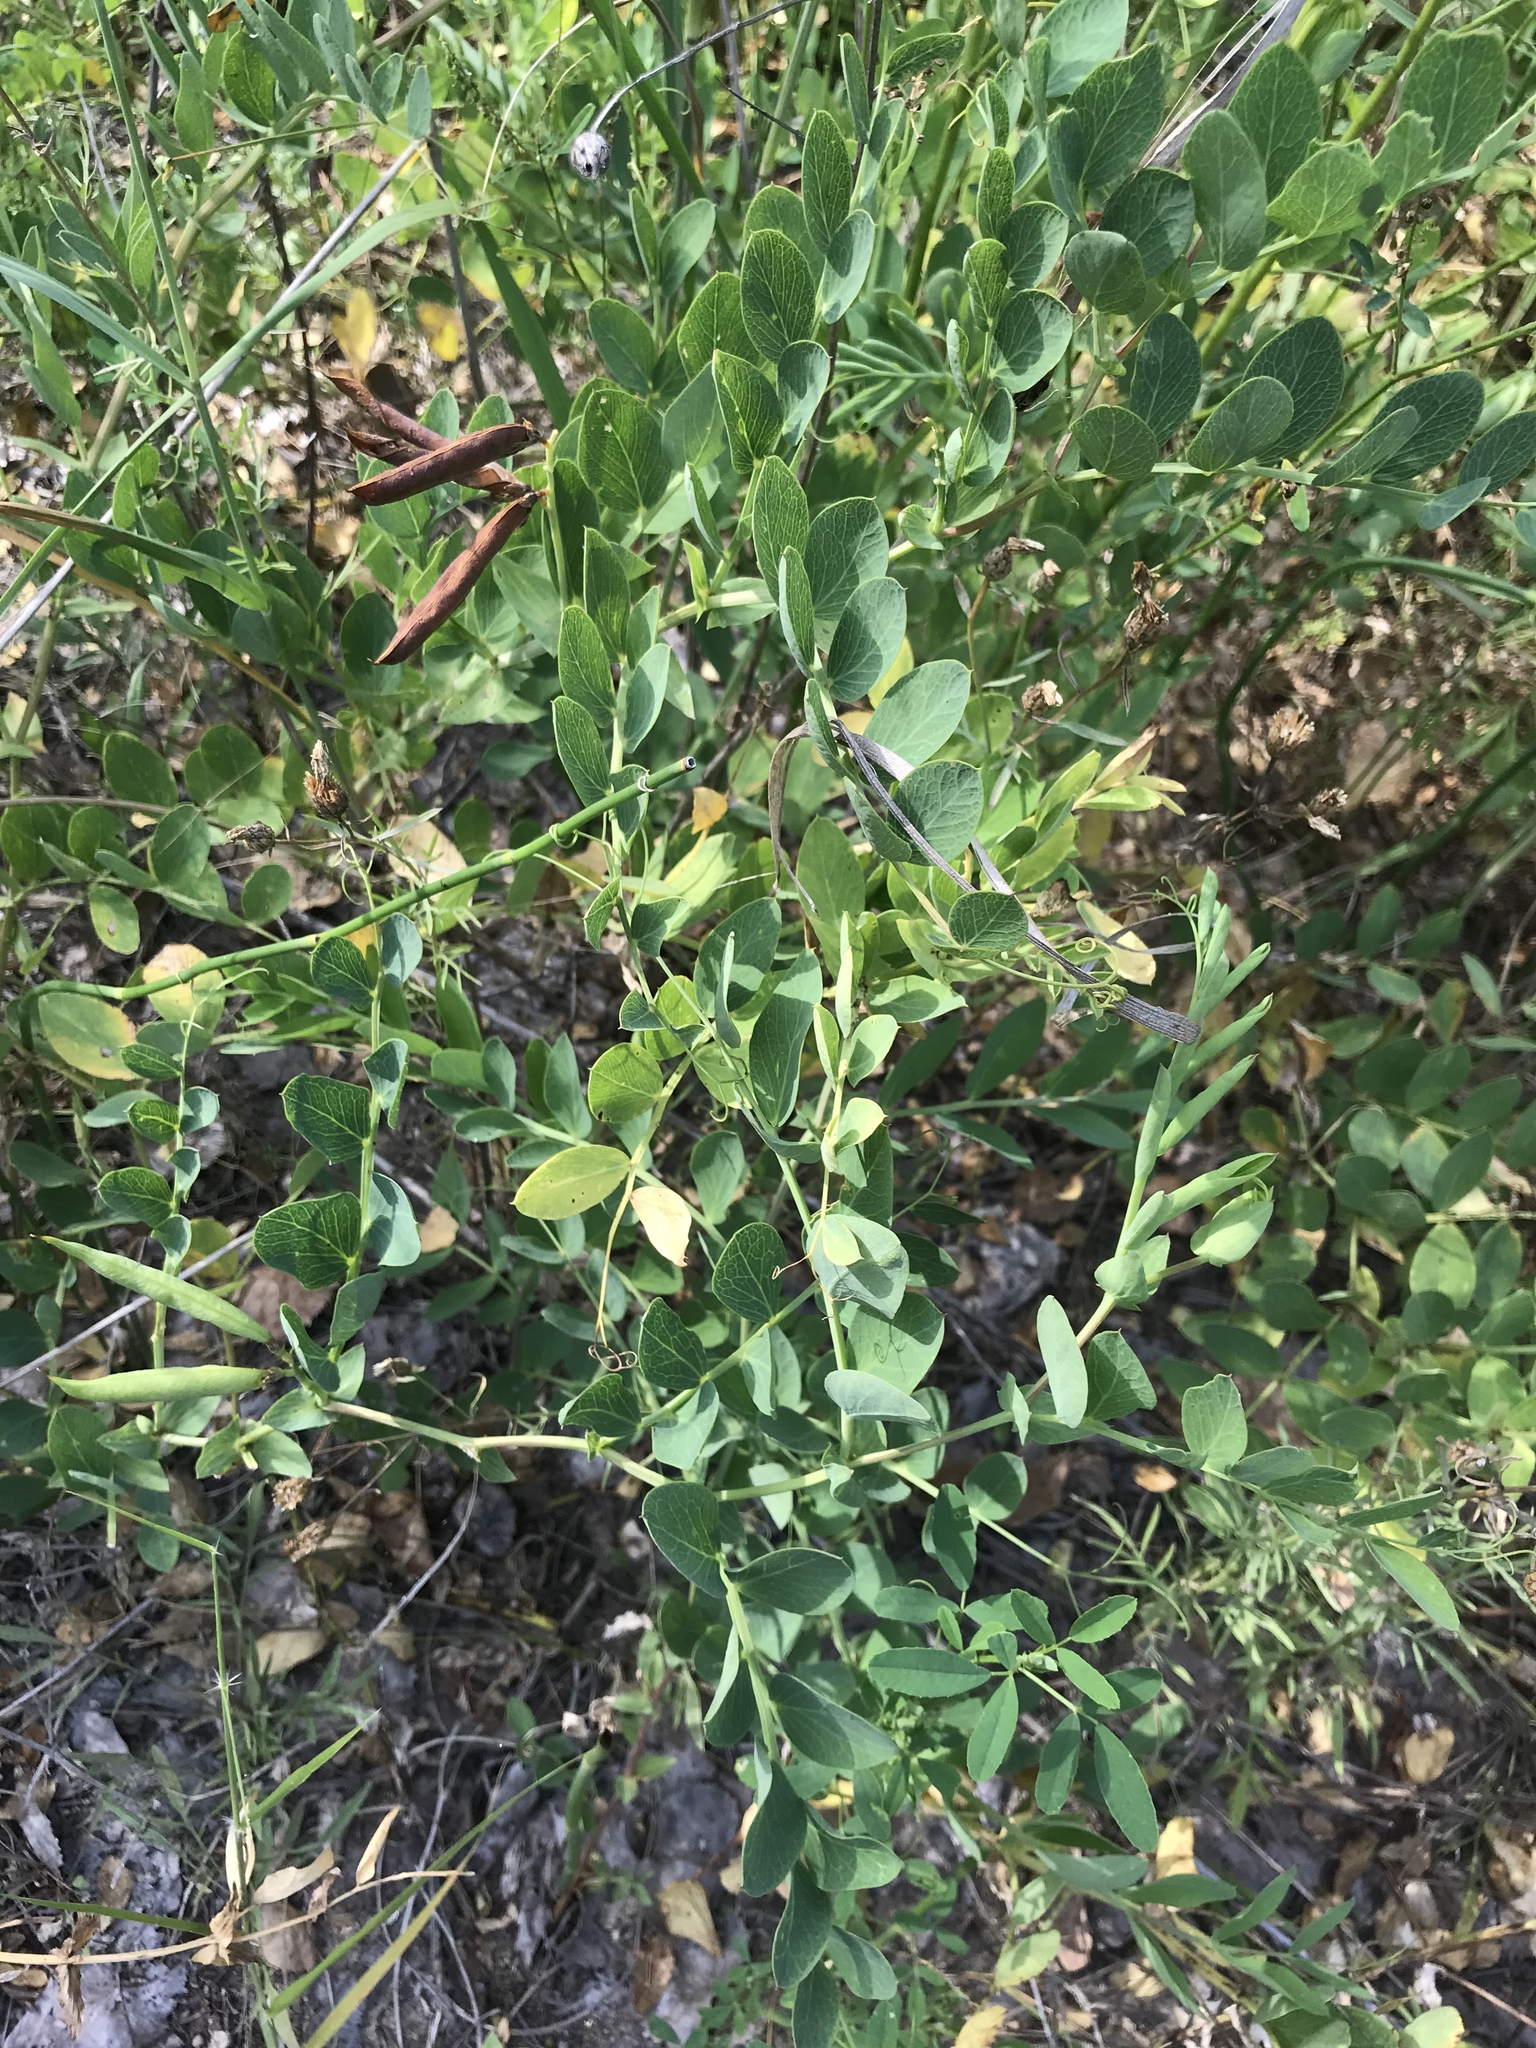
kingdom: Plantae
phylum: Tracheophyta
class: Magnoliopsida
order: Fabales
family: Fabaceae
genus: Lathyrus
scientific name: Lathyrus japonicus
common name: Sea pea
